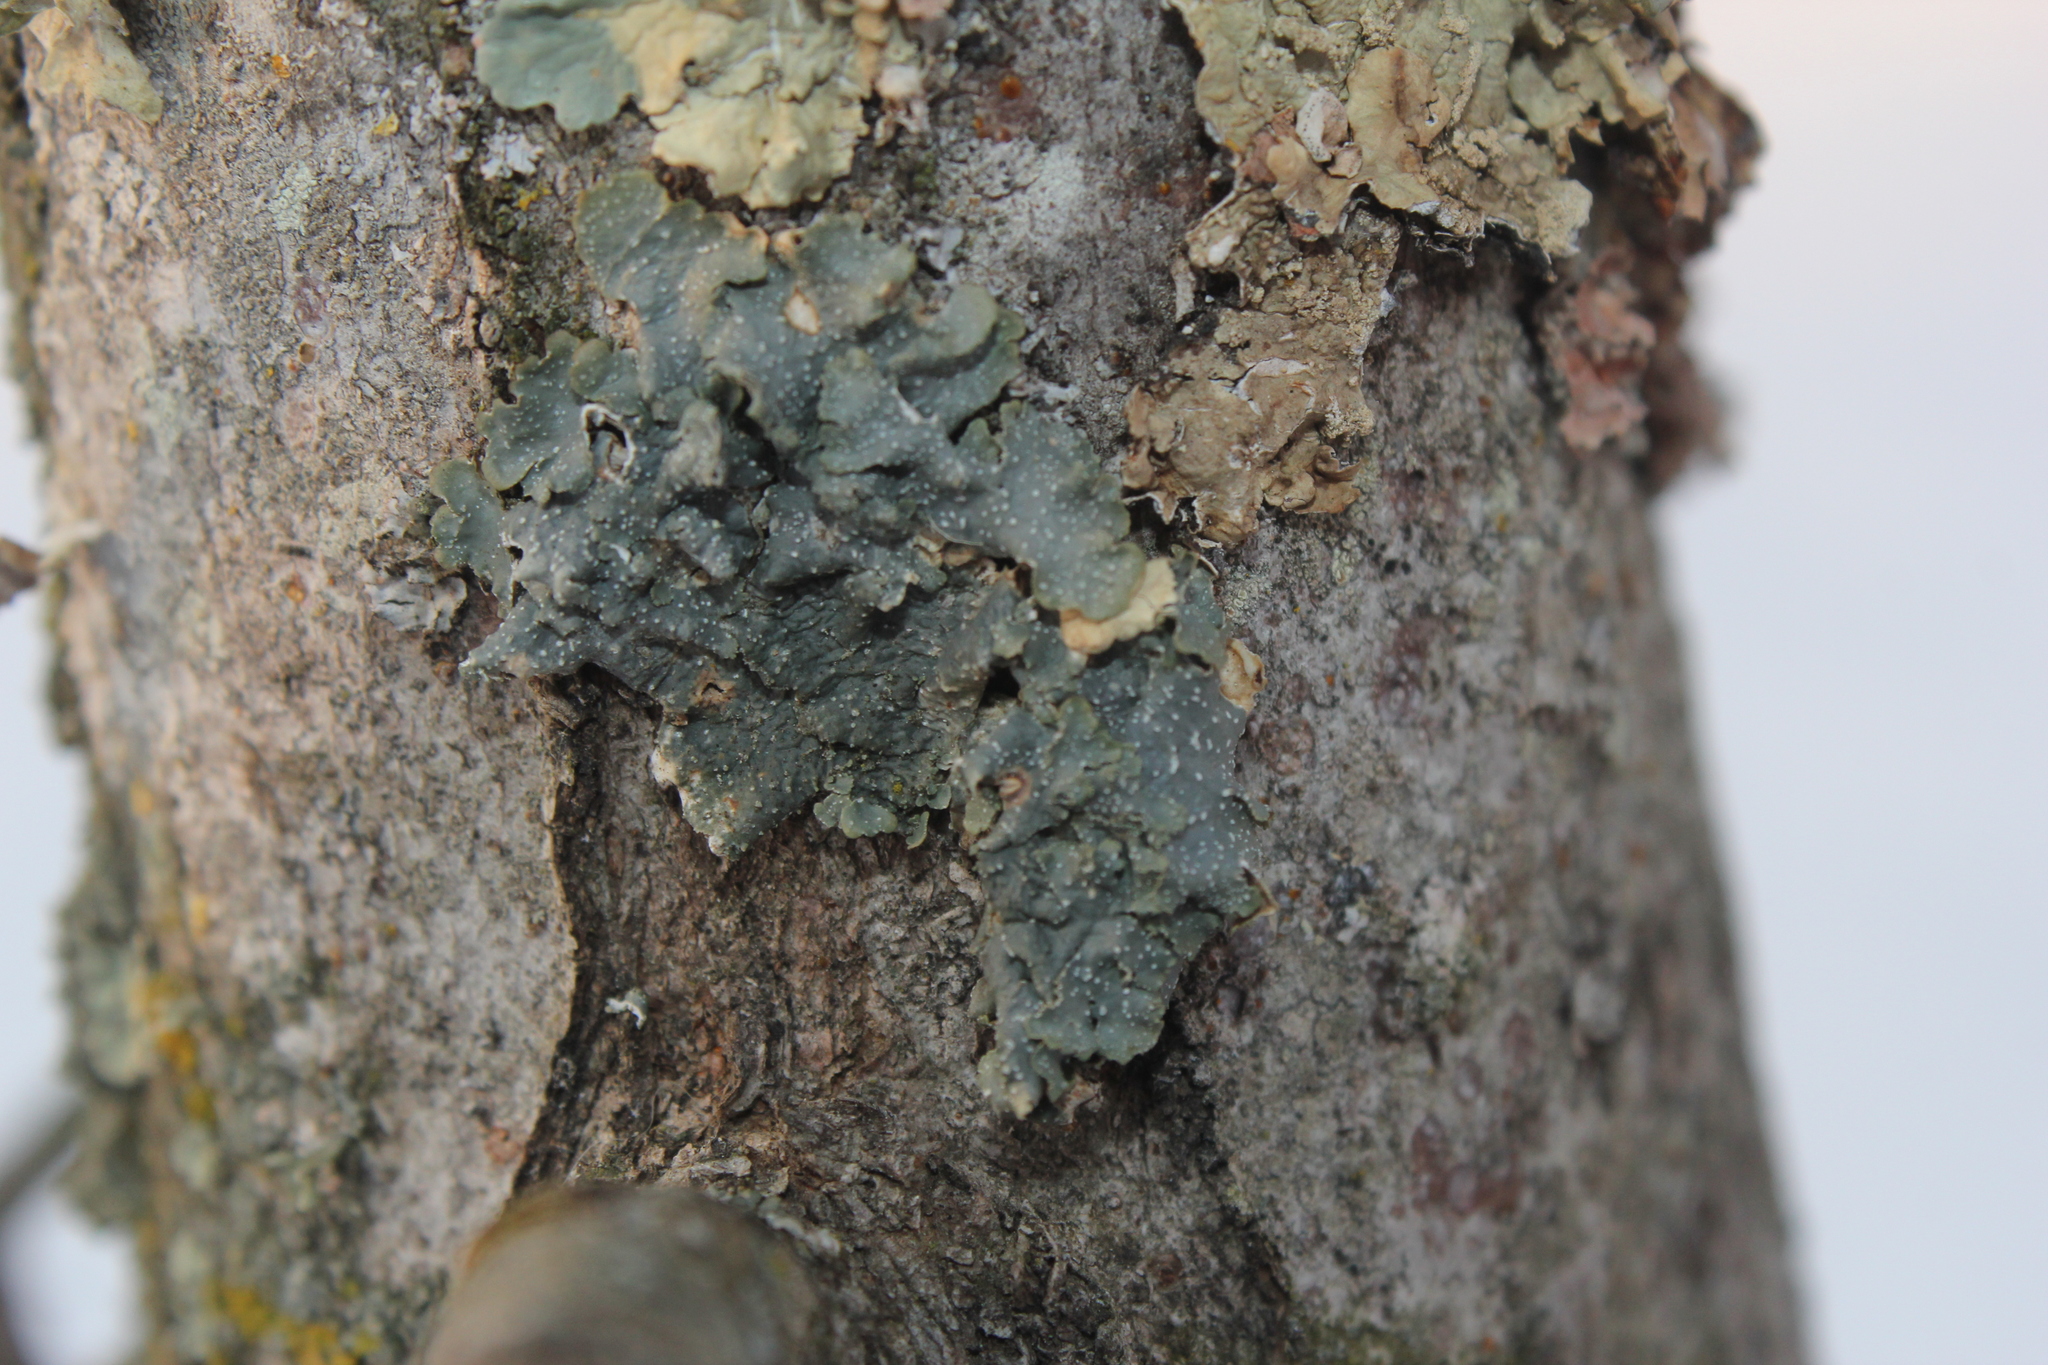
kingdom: Fungi
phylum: Ascomycota
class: Lecanoromycetes
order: Lecanorales
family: Parmeliaceae
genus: Punctelia
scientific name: Punctelia rudecta
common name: Rough speckled shield lichen
